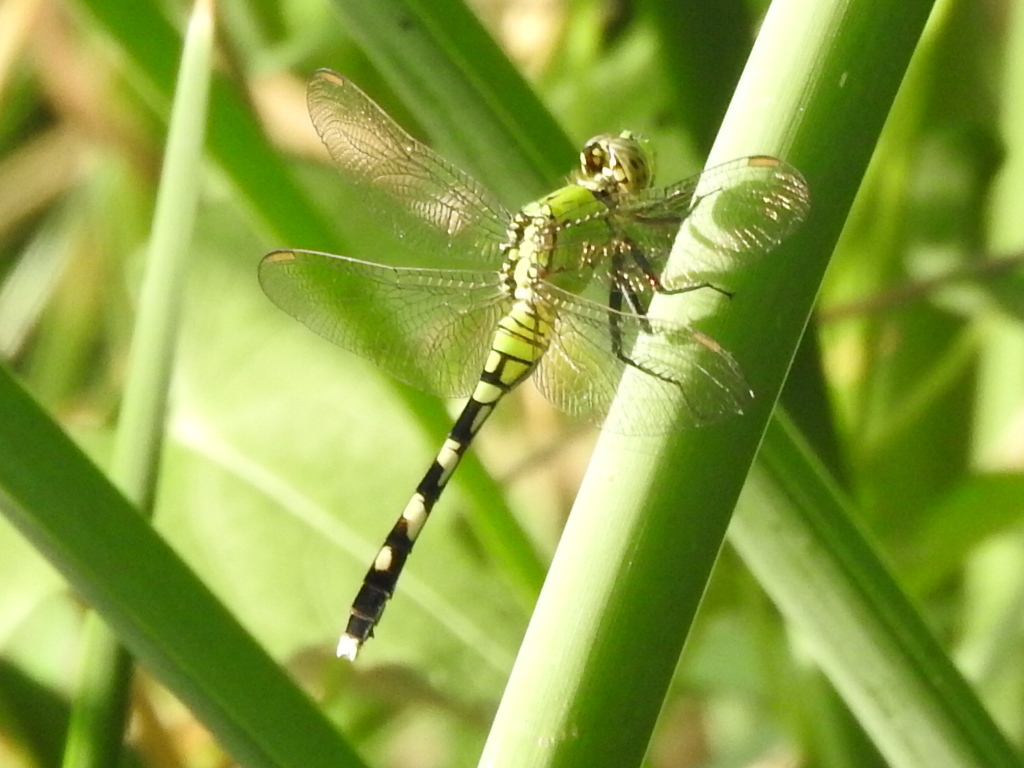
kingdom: Animalia
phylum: Arthropoda
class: Insecta
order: Odonata
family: Libellulidae
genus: Erythemis
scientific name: Erythemis simplicicollis
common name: Eastern pondhawk
